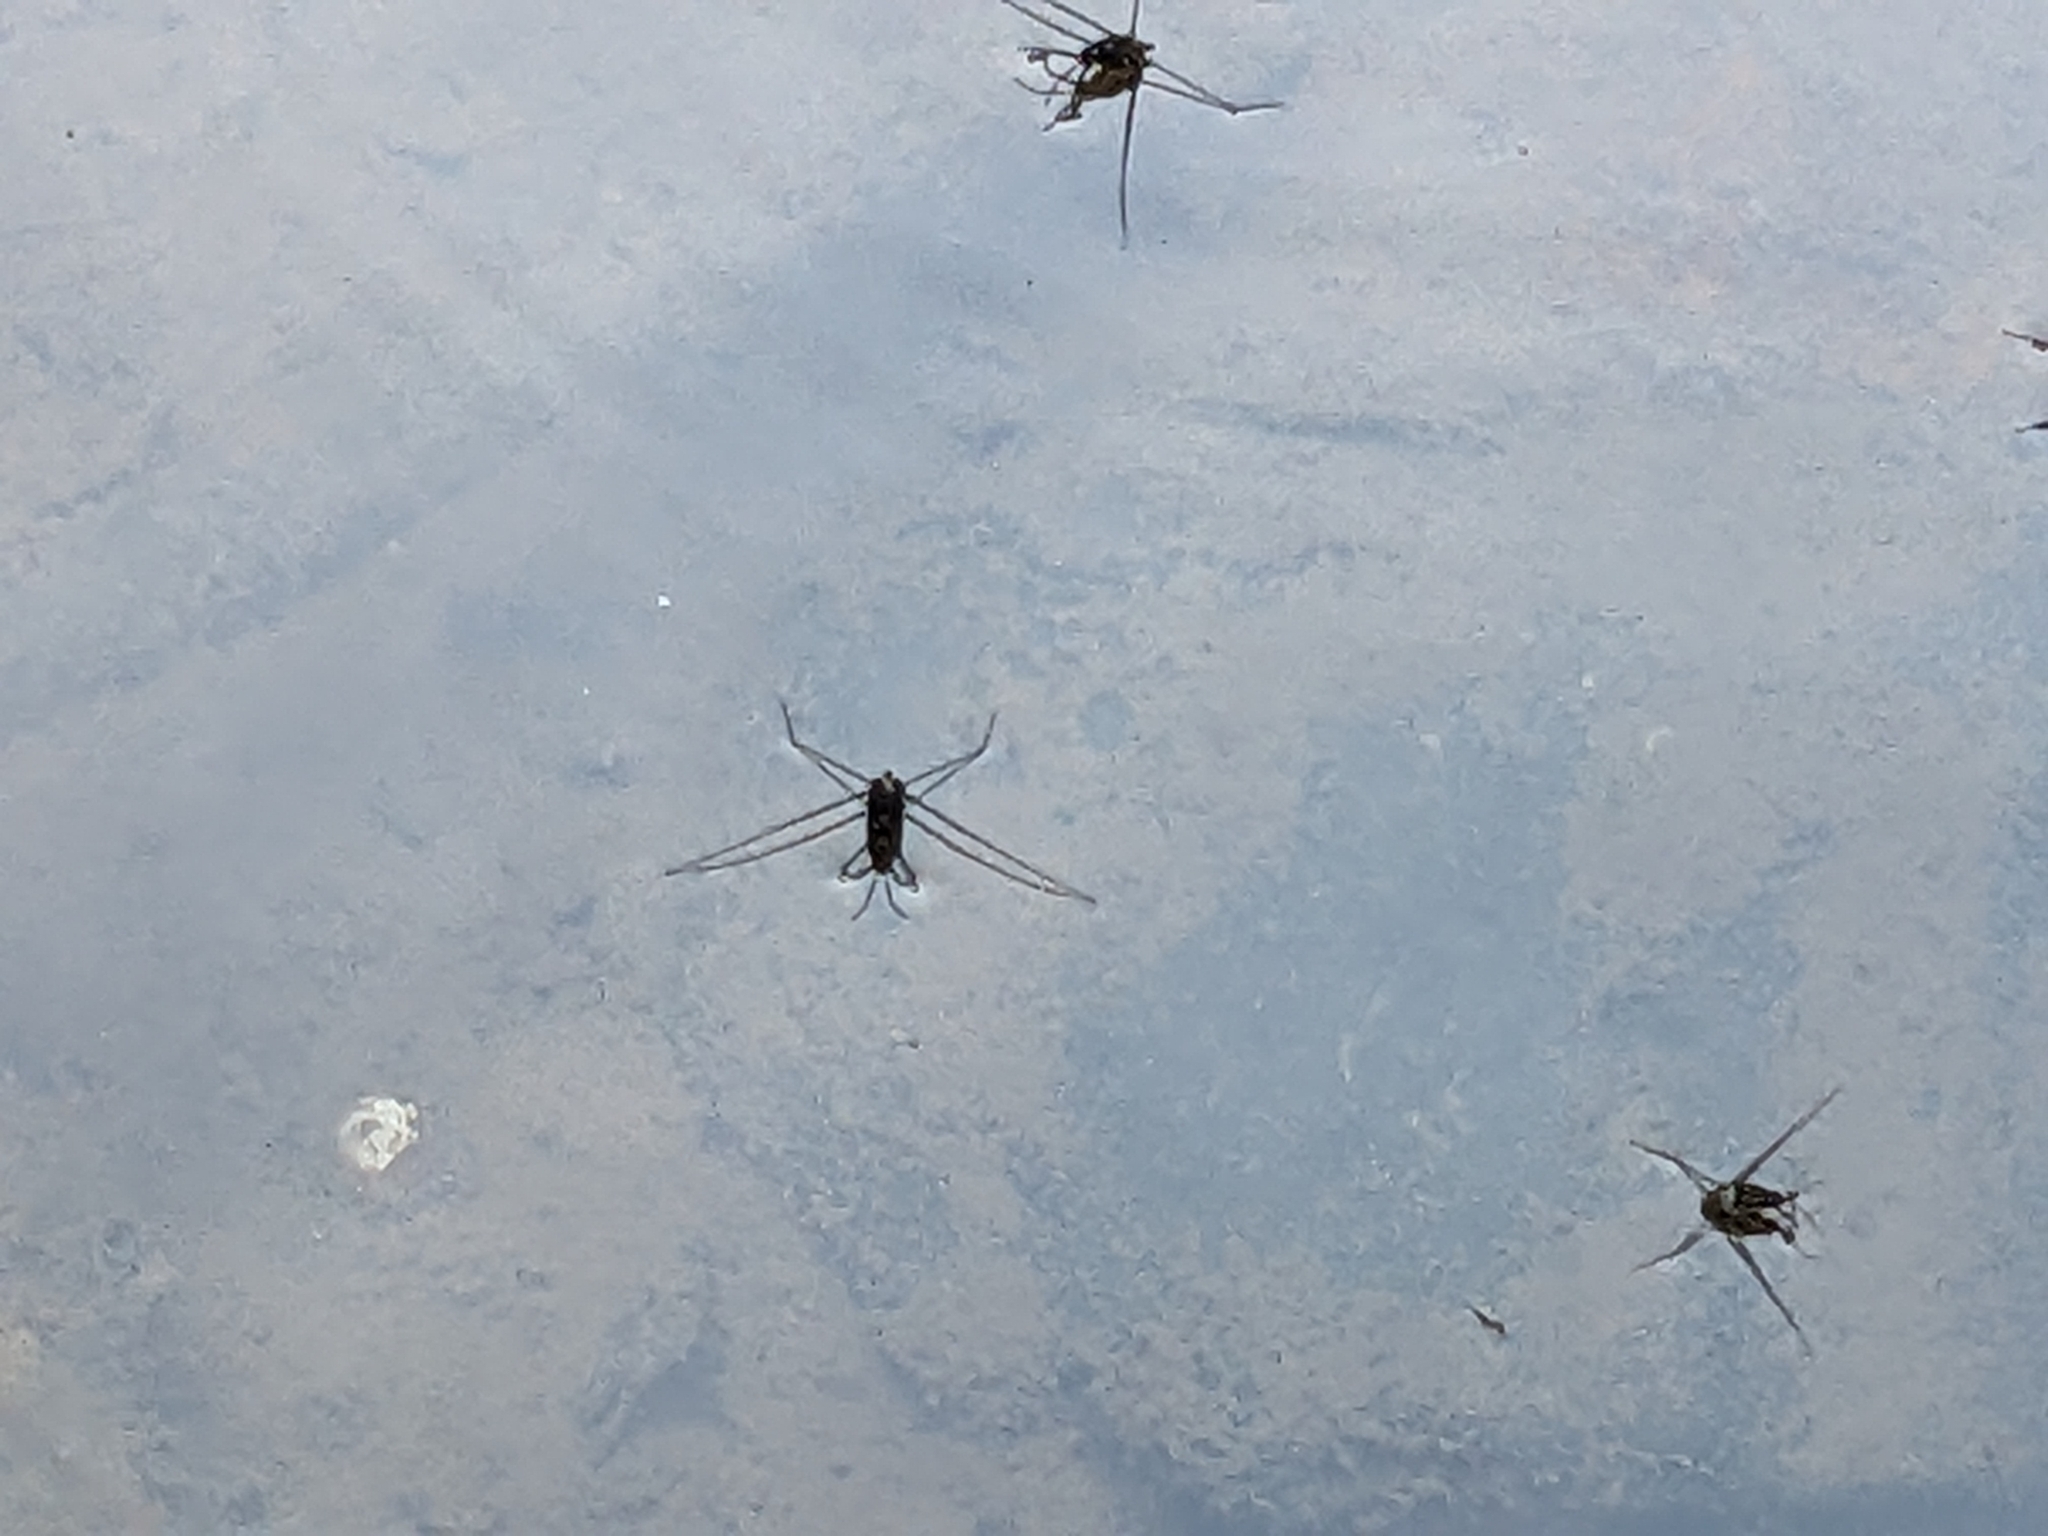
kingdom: Animalia
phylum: Arthropoda
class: Insecta
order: Hemiptera
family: Gerridae
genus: Metrobates
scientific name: Metrobates hesperius
